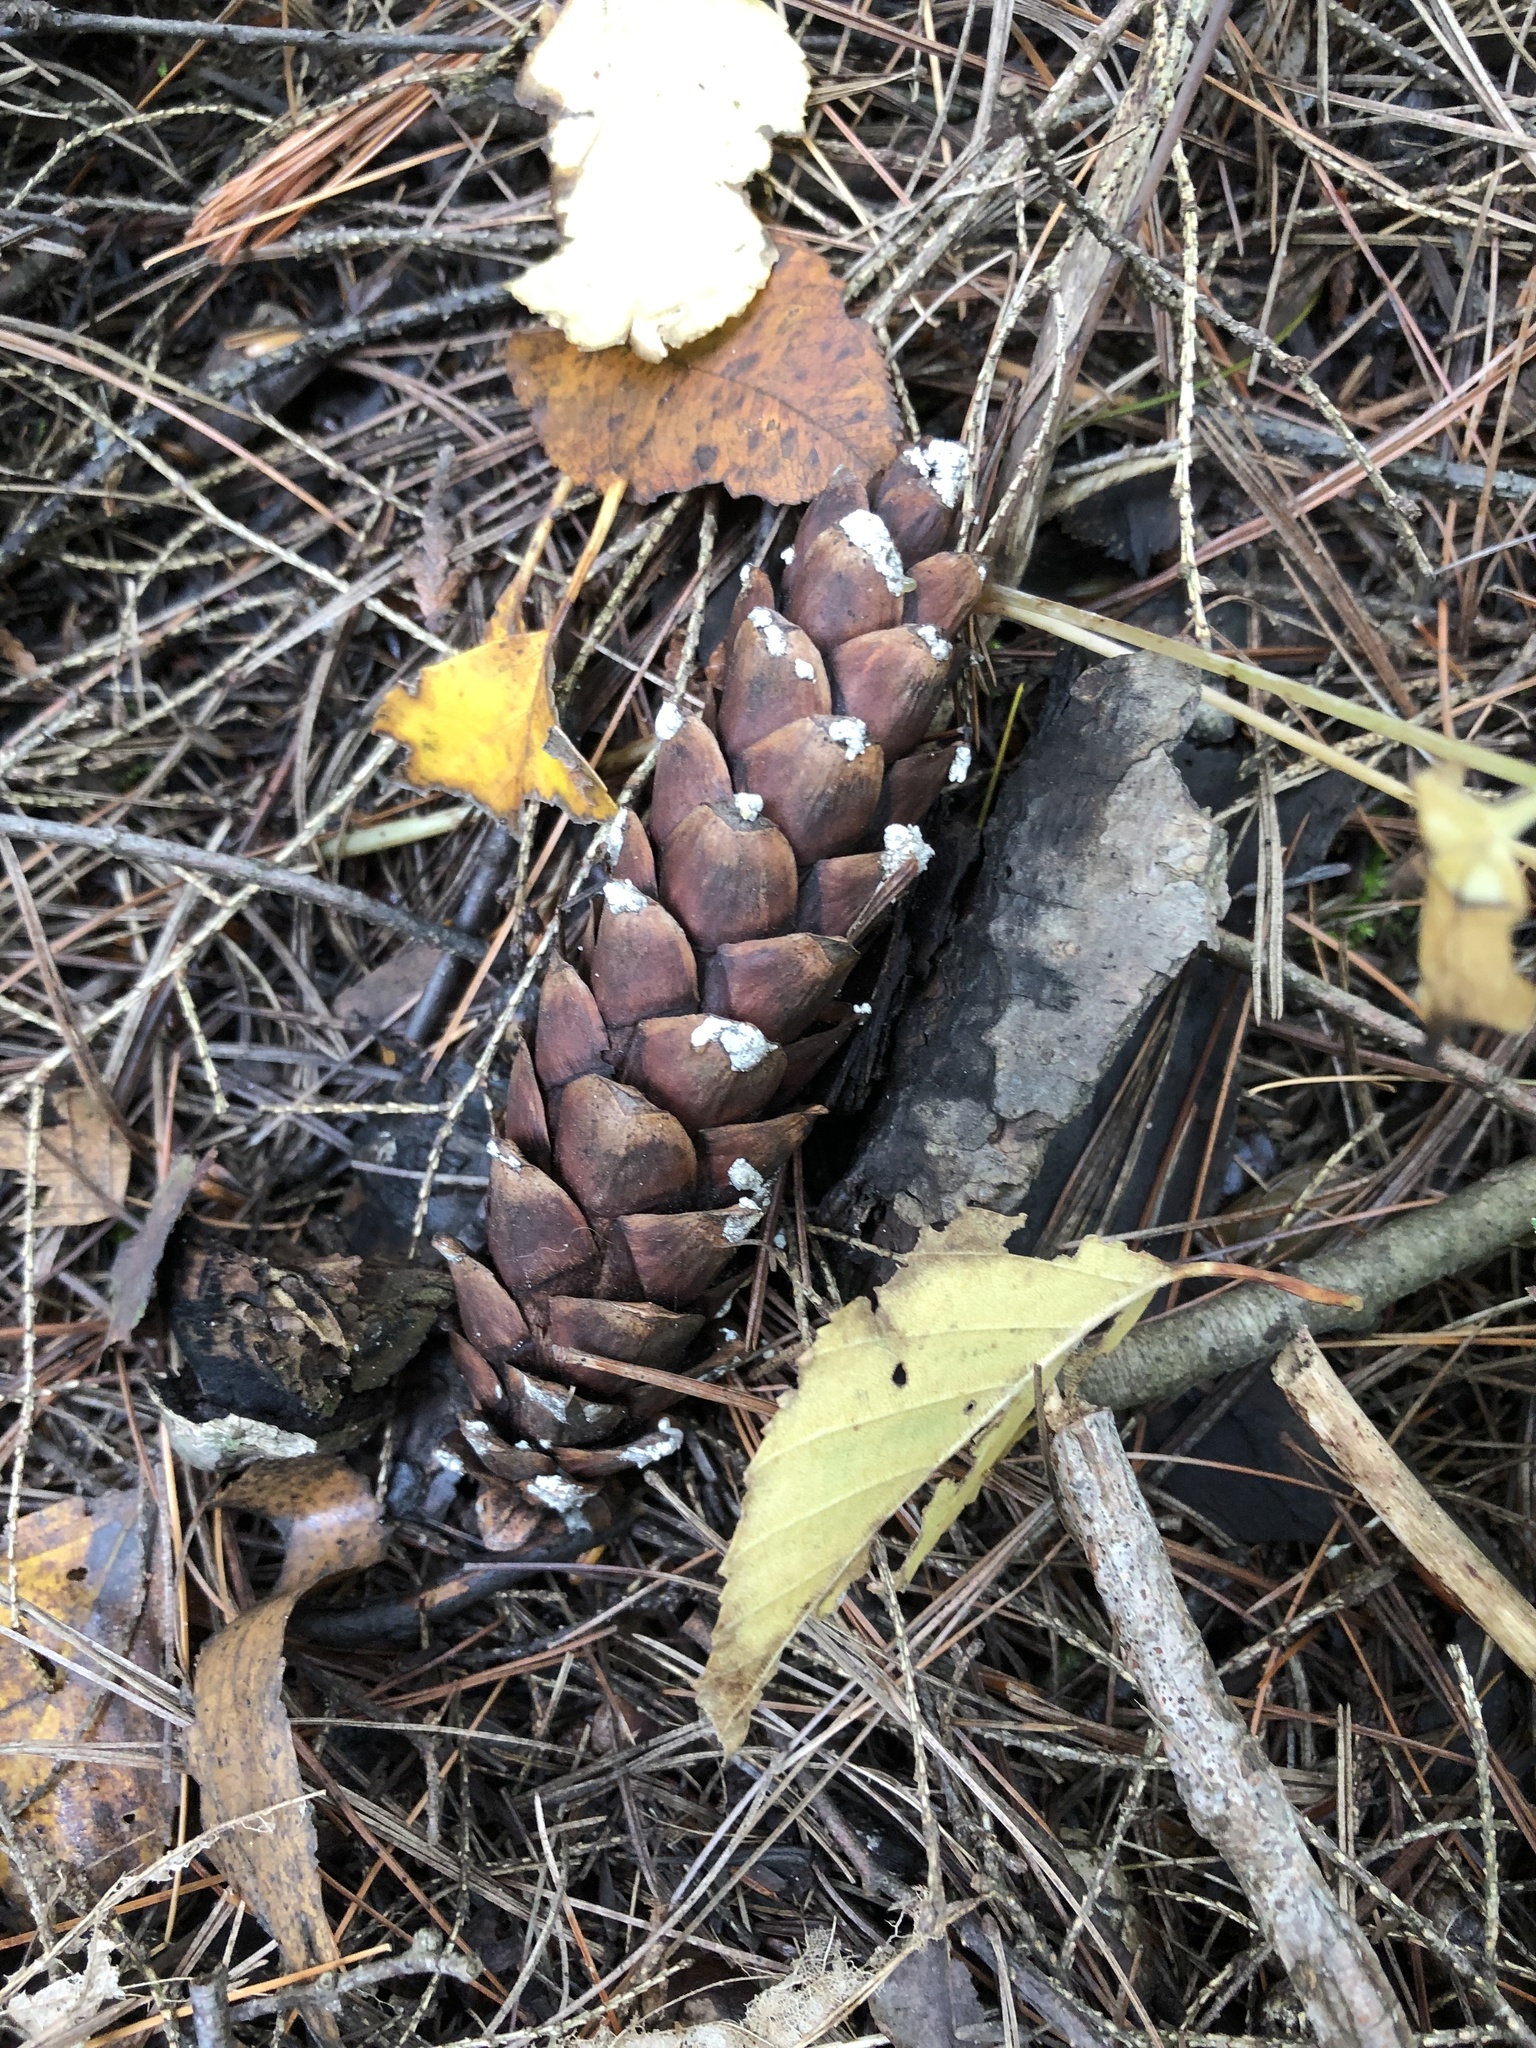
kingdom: Plantae
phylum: Tracheophyta
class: Pinopsida
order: Pinales
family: Pinaceae
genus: Pinus
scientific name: Pinus strobus
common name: Weymouth pine
